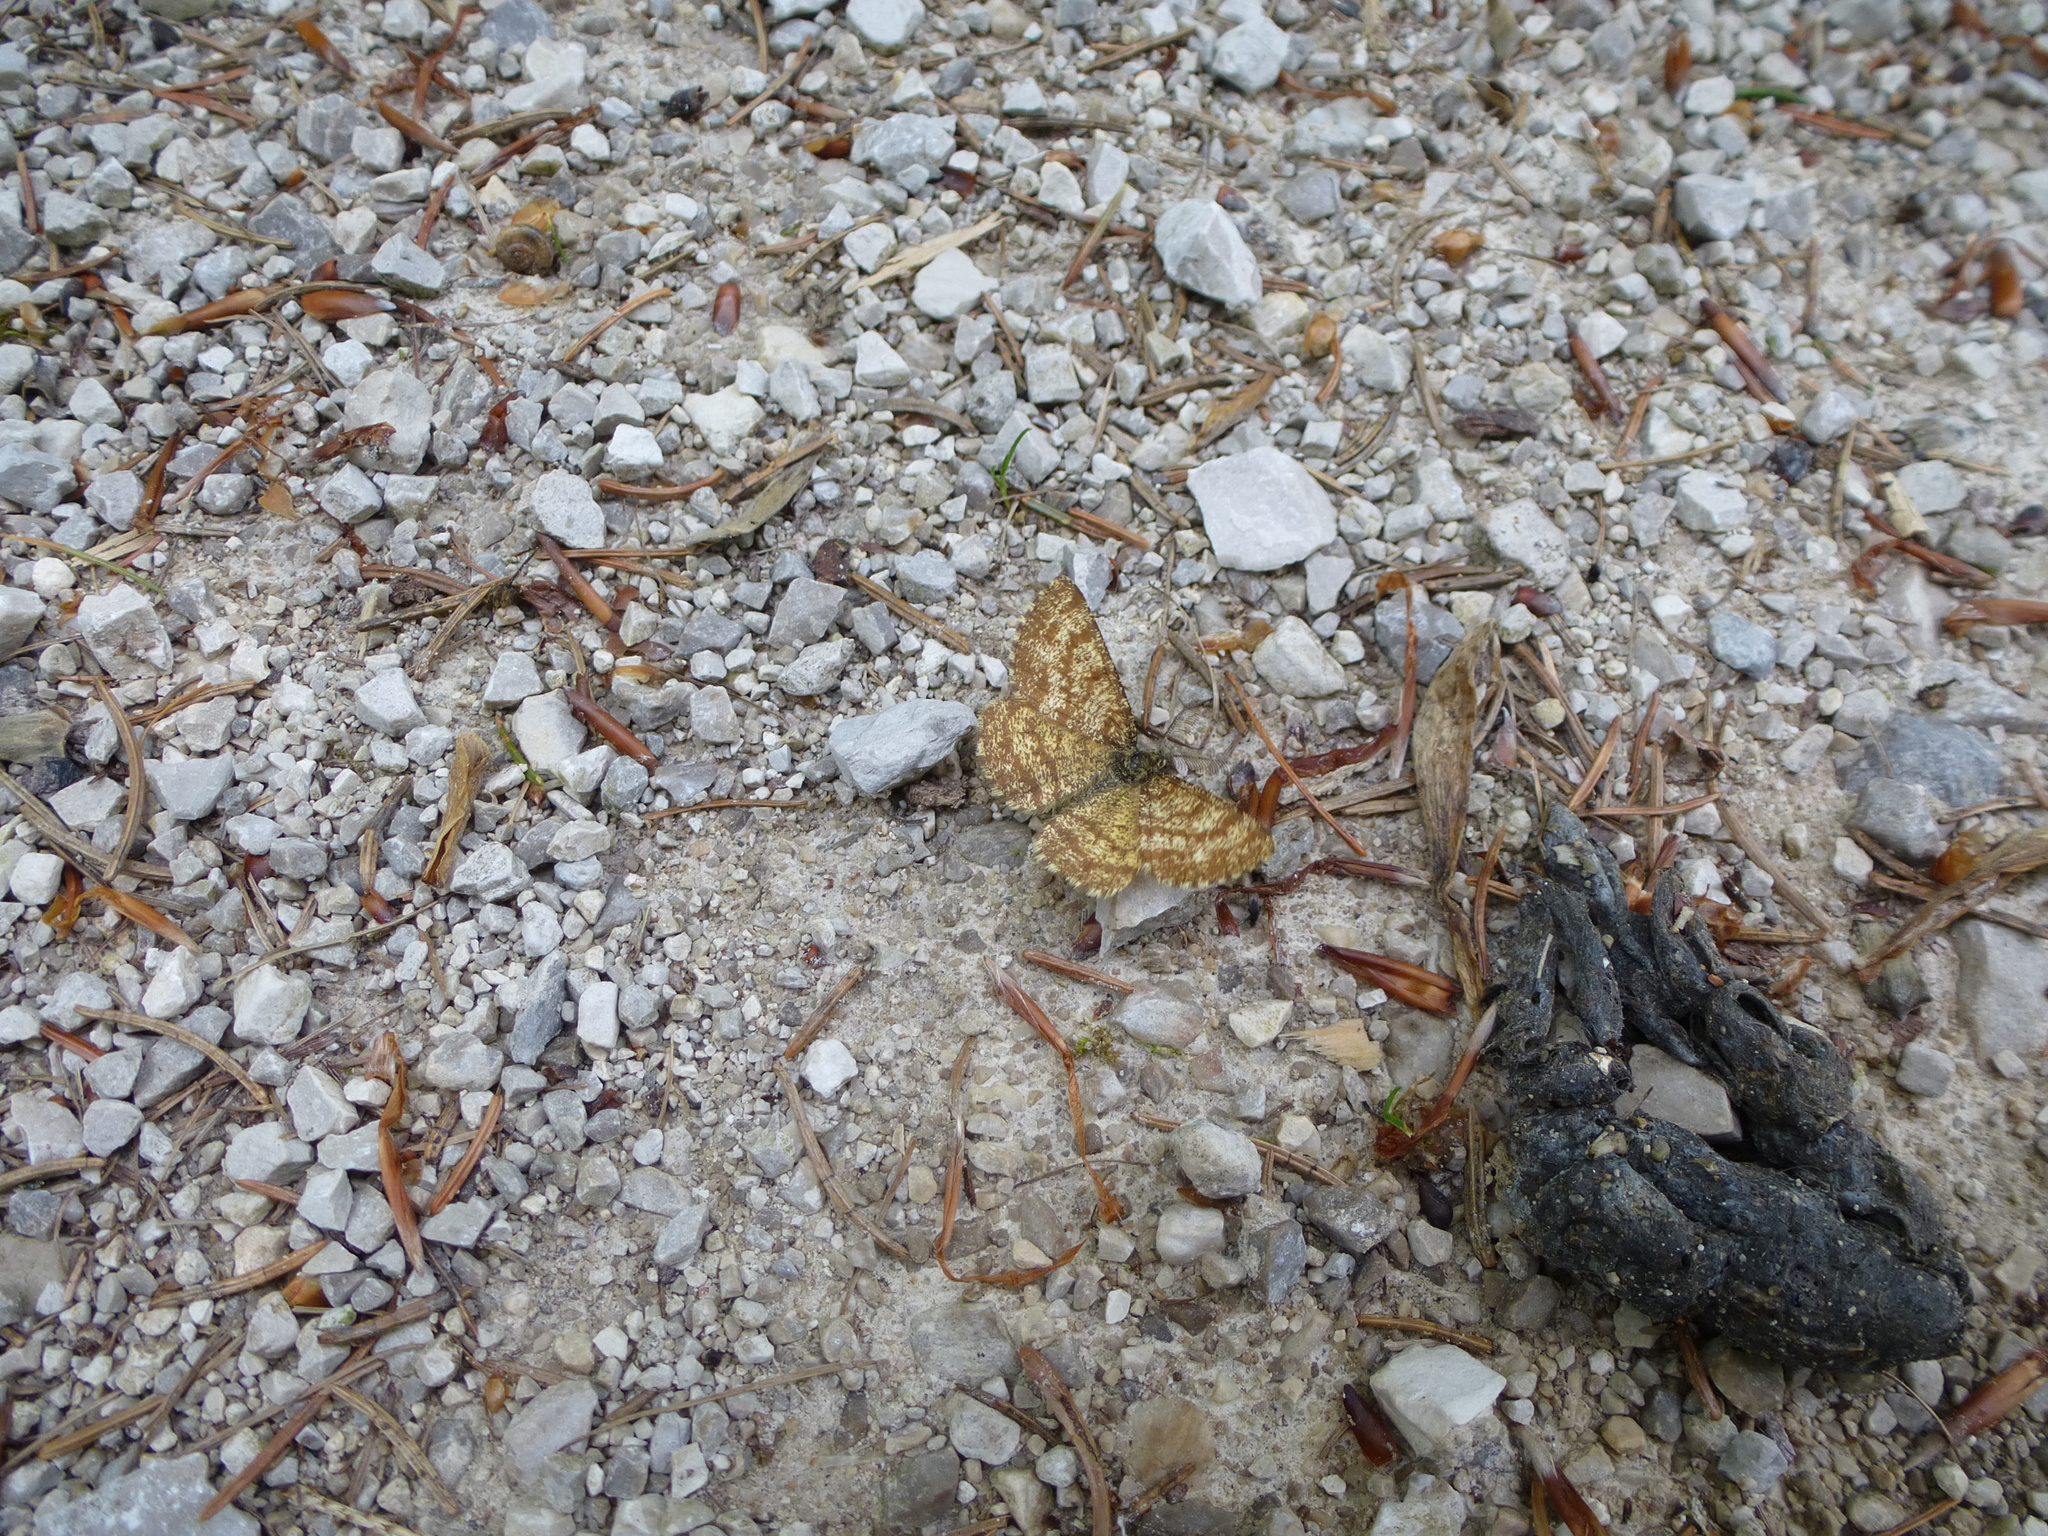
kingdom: Animalia
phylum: Arthropoda
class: Insecta
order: Lepidoptera
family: Geometridae
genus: Ematurga
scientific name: Ematurga atomaria
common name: Common heath
